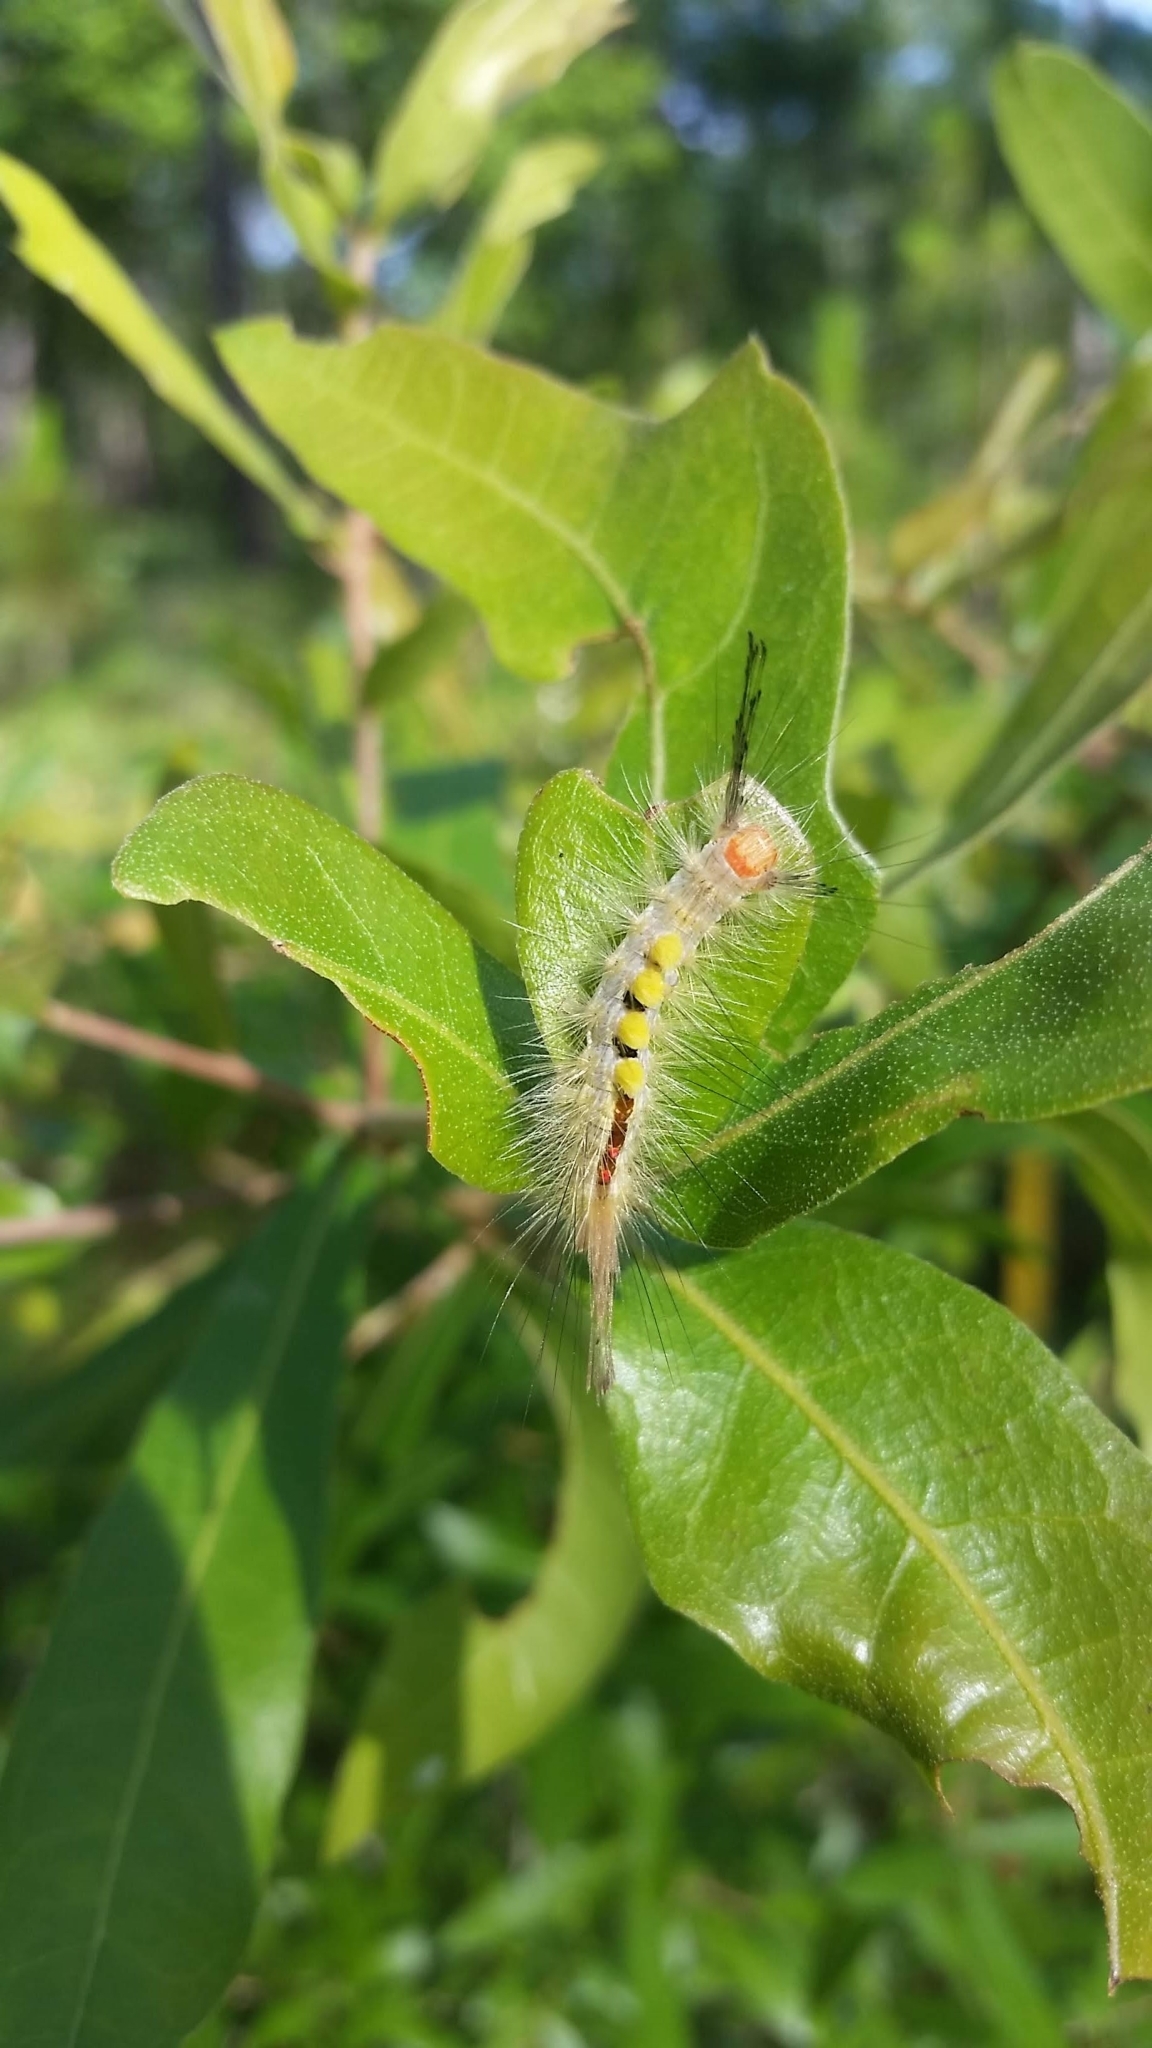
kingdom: Animalia
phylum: Arthropoda
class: Insecta
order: Lepidoptera
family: Erebidae
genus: Orgyia
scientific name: Orgyia leucostigma
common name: White-marked tussock moth
